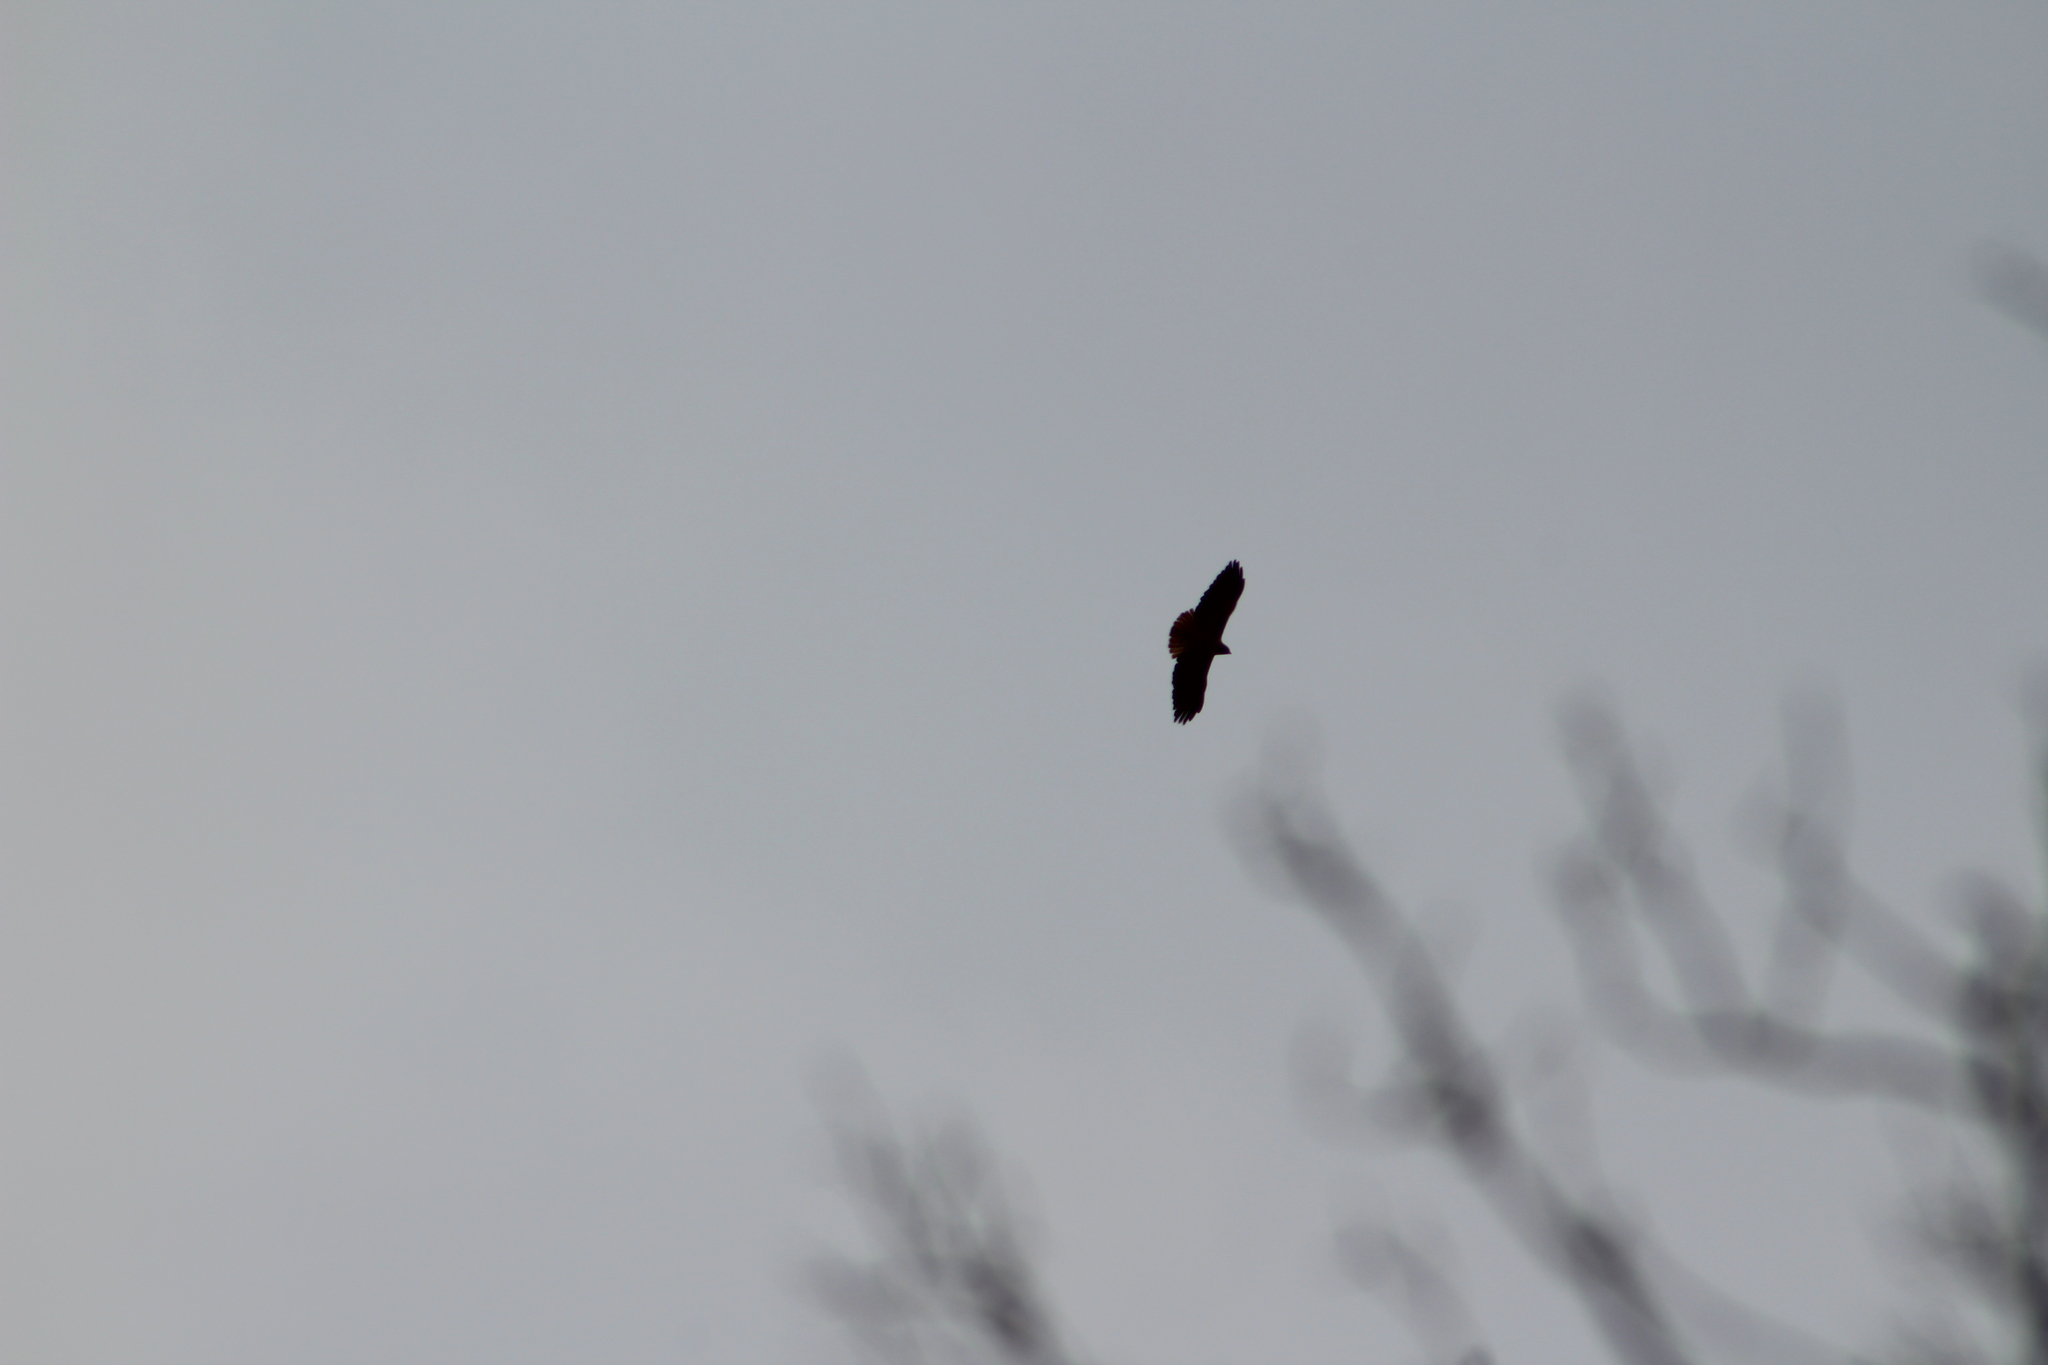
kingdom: Animalia
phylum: Chordata
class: Aves
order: Accipitriformes
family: Accipitridae
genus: Buteo
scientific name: Buteo jamaicensis
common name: Red-tailed hawk
